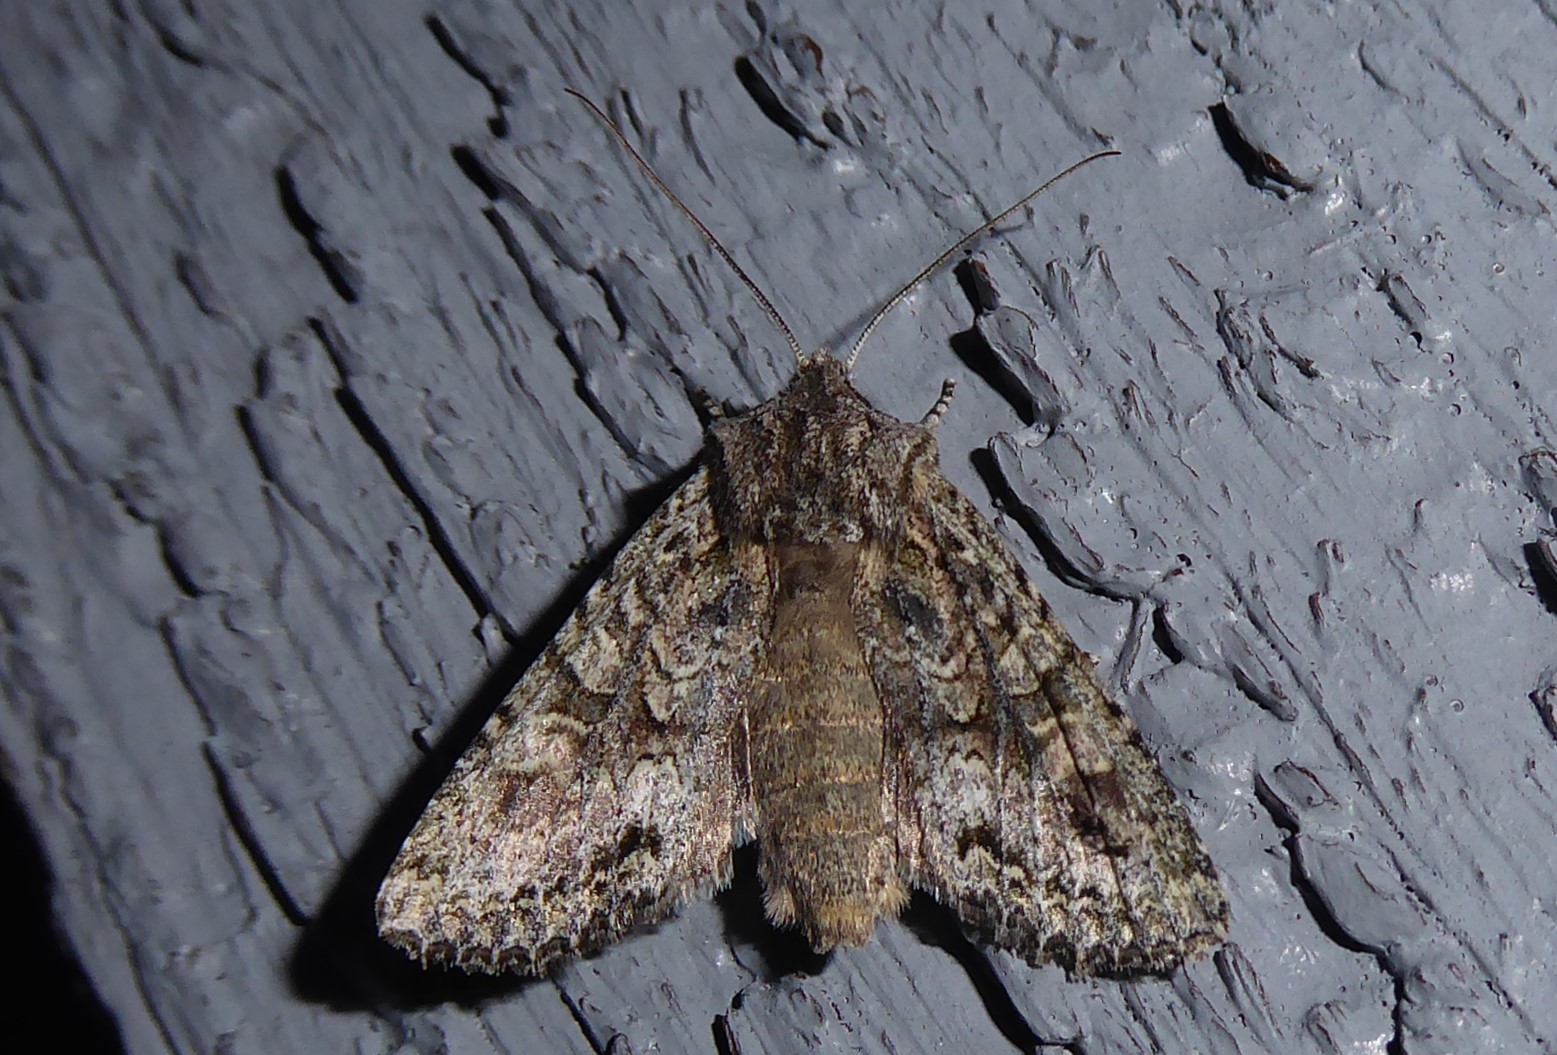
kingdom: Animalia
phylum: Arthropoda
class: Insecta
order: Lepidoptera
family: Noctuidae
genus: Ichneutica
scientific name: Ichneutica mutans
